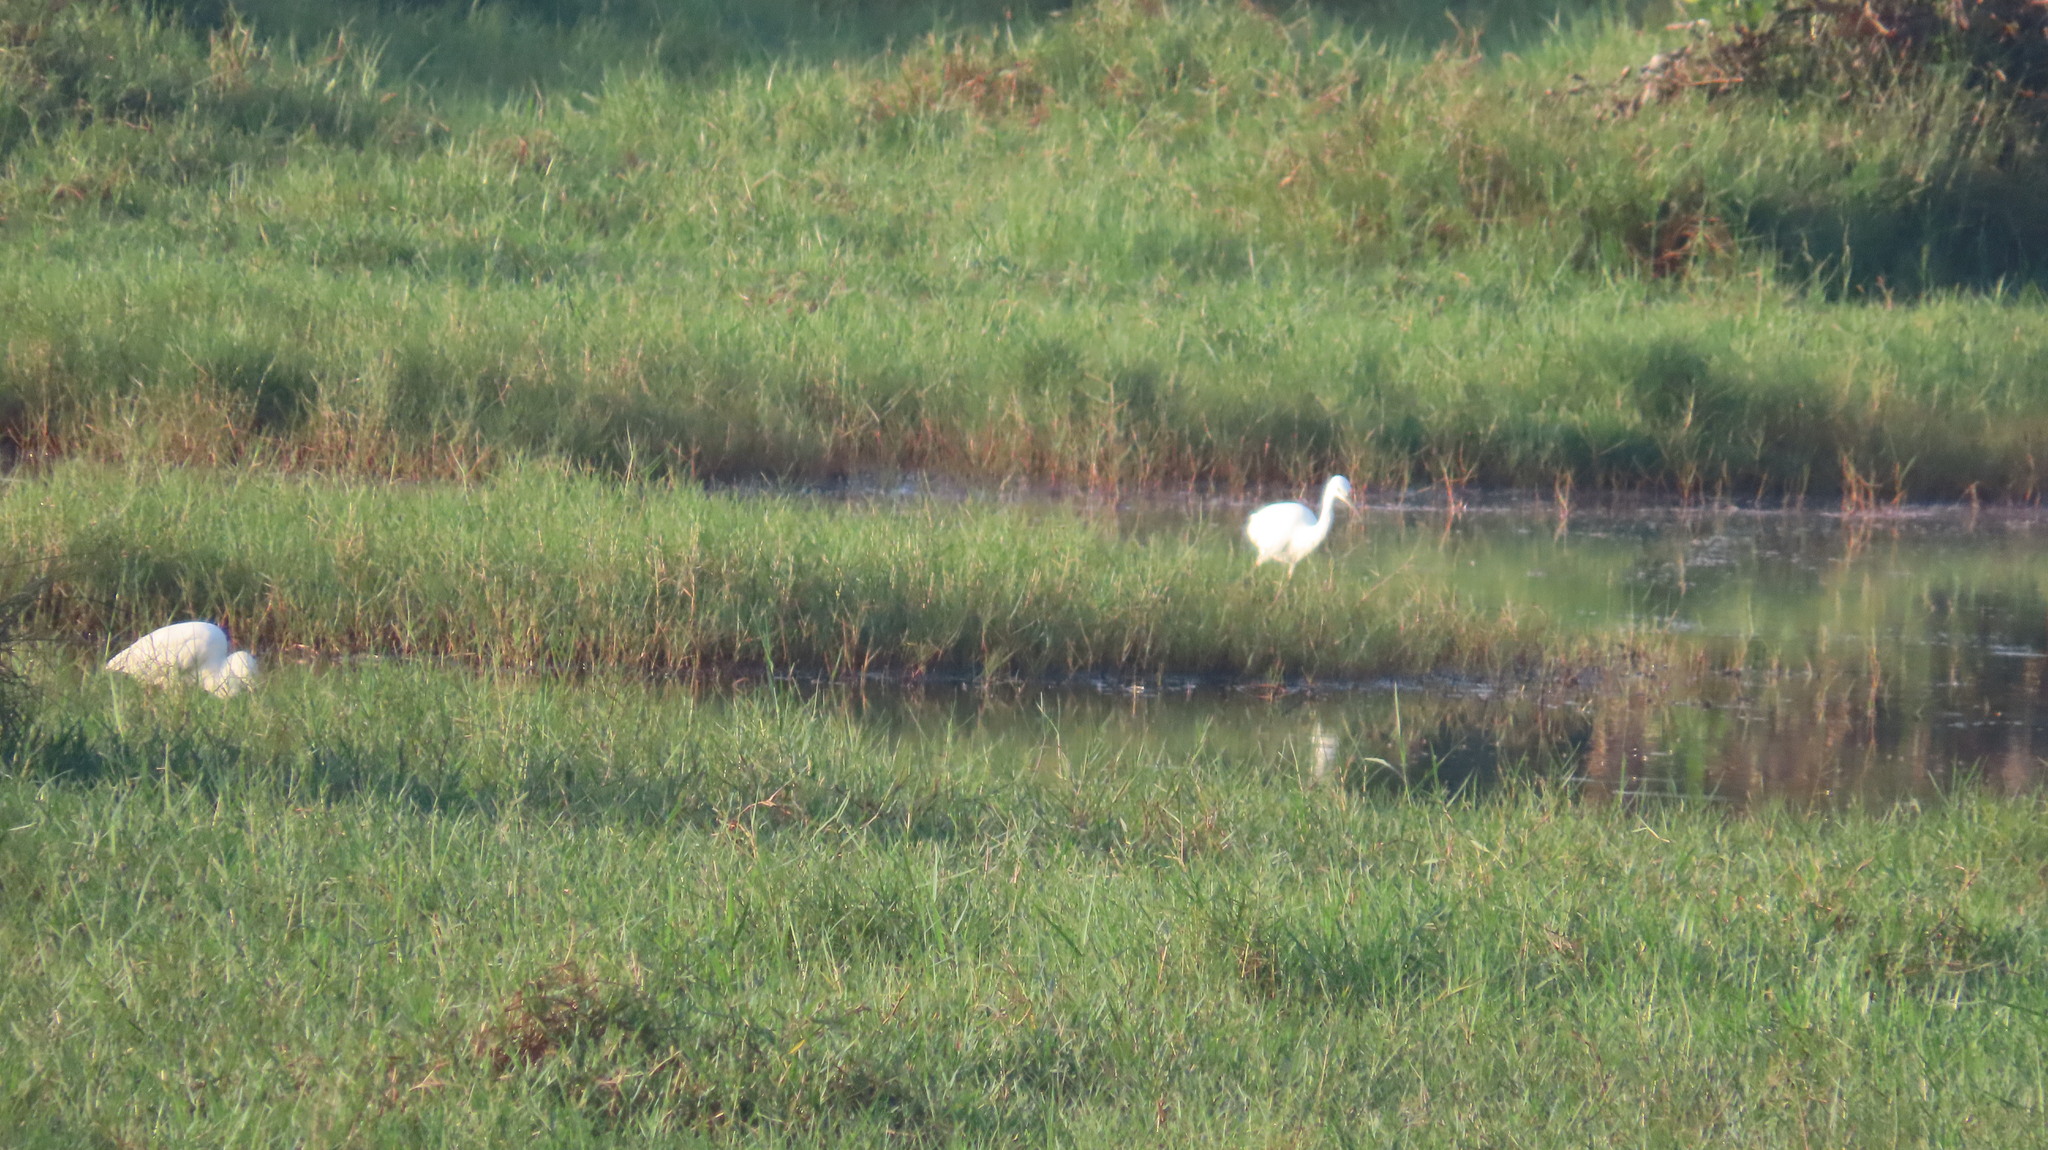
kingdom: Animalia
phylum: Chordata
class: Aves
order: Pelecaniformes
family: Ardeidae
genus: Egretta
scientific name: Egretta garzetta
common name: Little egret
